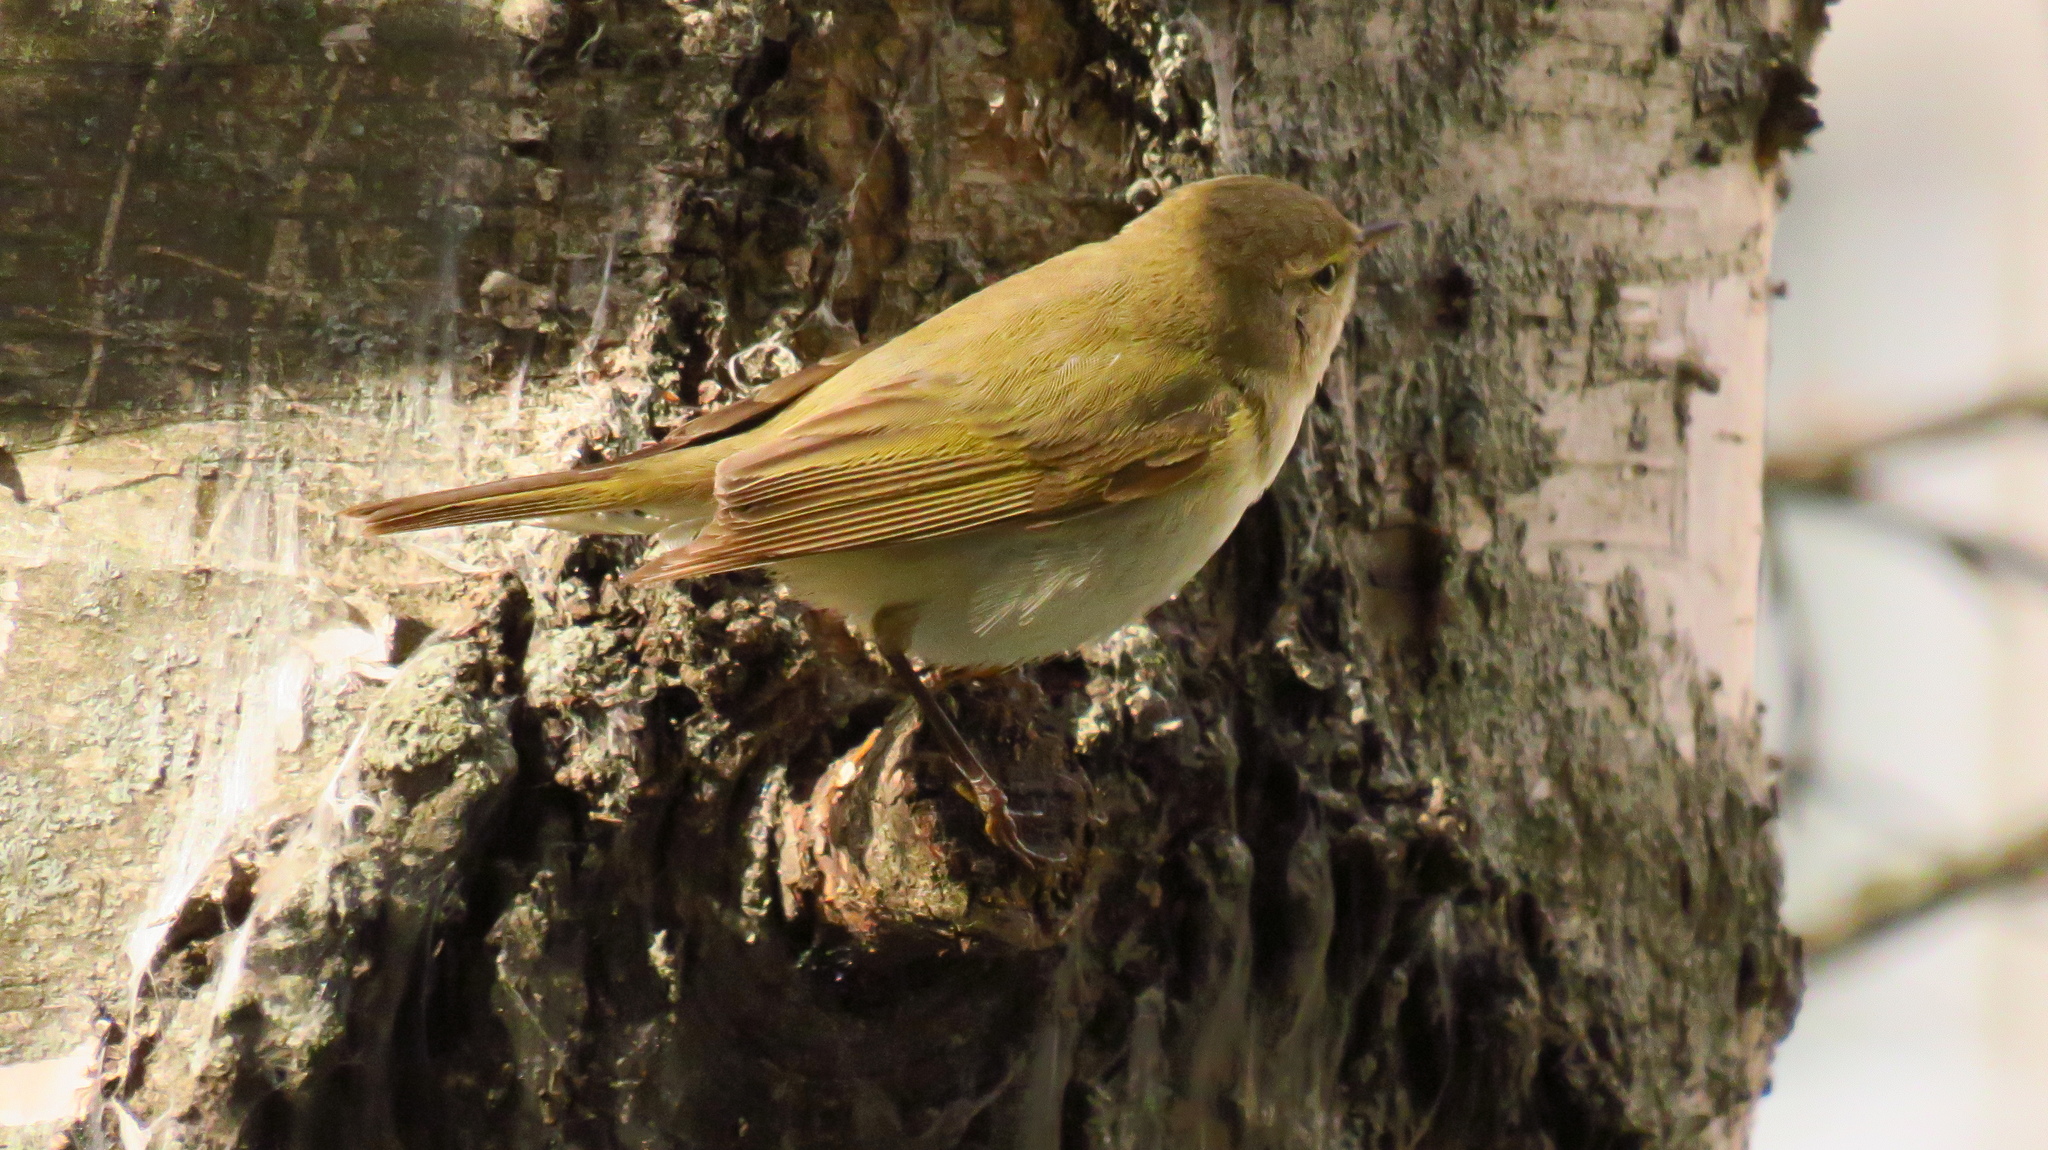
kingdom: Animalia
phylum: Chordata
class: Aves
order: Passeriformes
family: Phylloscopidae
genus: Phylloscopus
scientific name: Phylloscopus collybita
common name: Common chiffchaff
